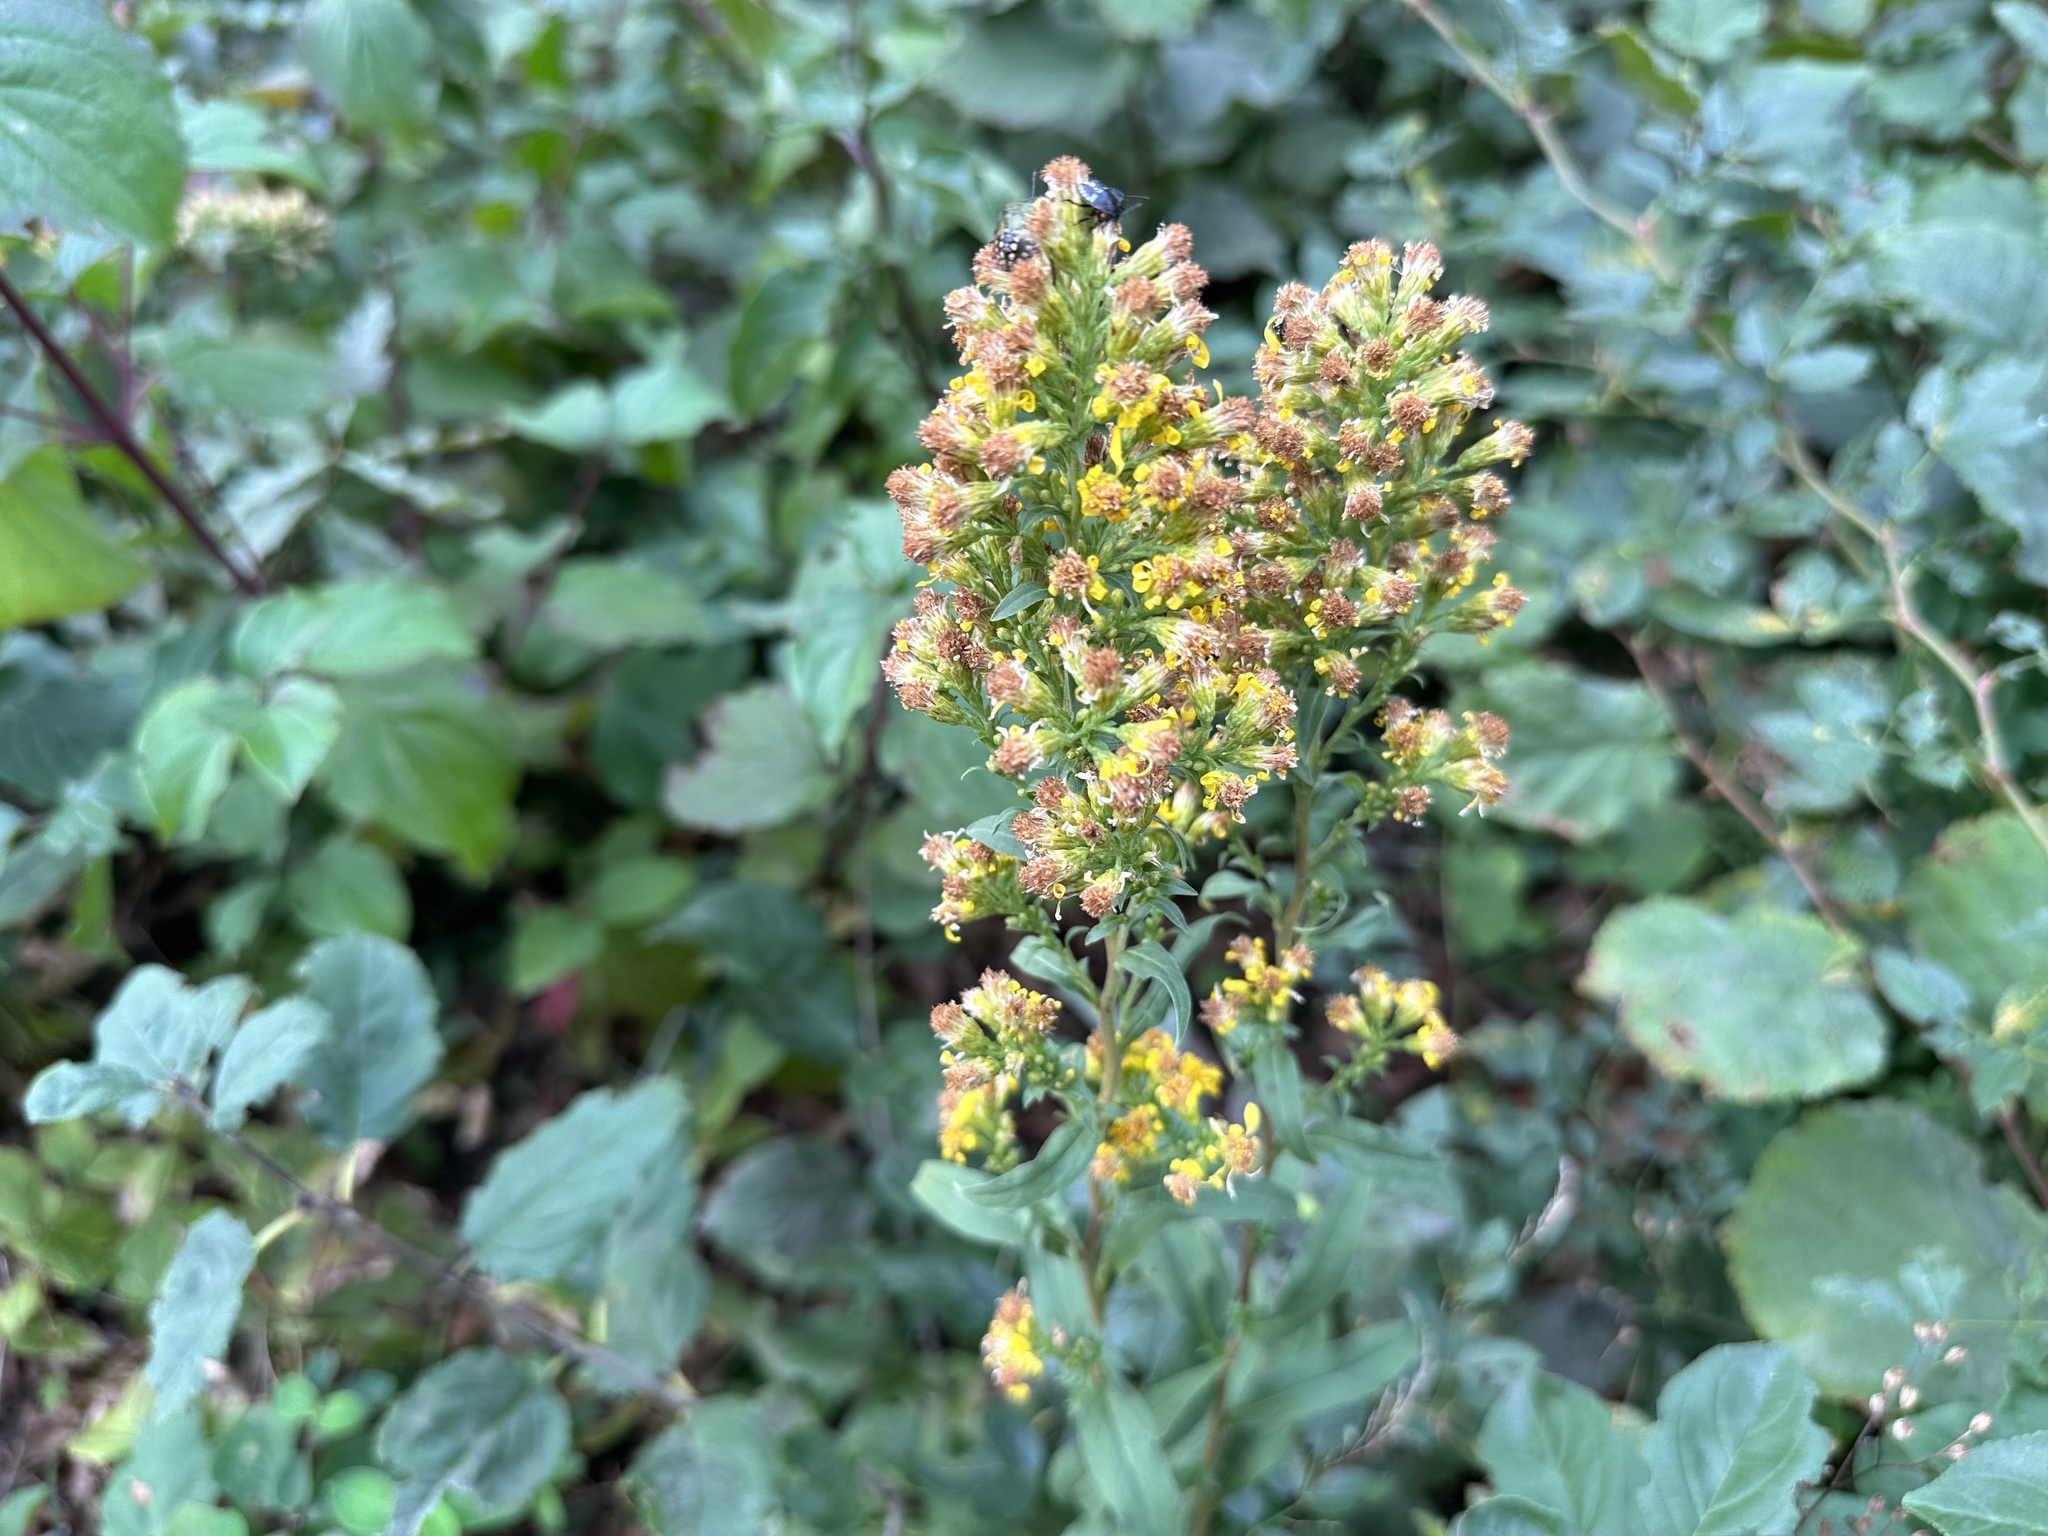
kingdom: Plantae
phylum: Tracheophyta
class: Magnoliopsida
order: Asterales
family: Asteraceae
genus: Solidago
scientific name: Solidago virgaurea
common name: Goldenrod
